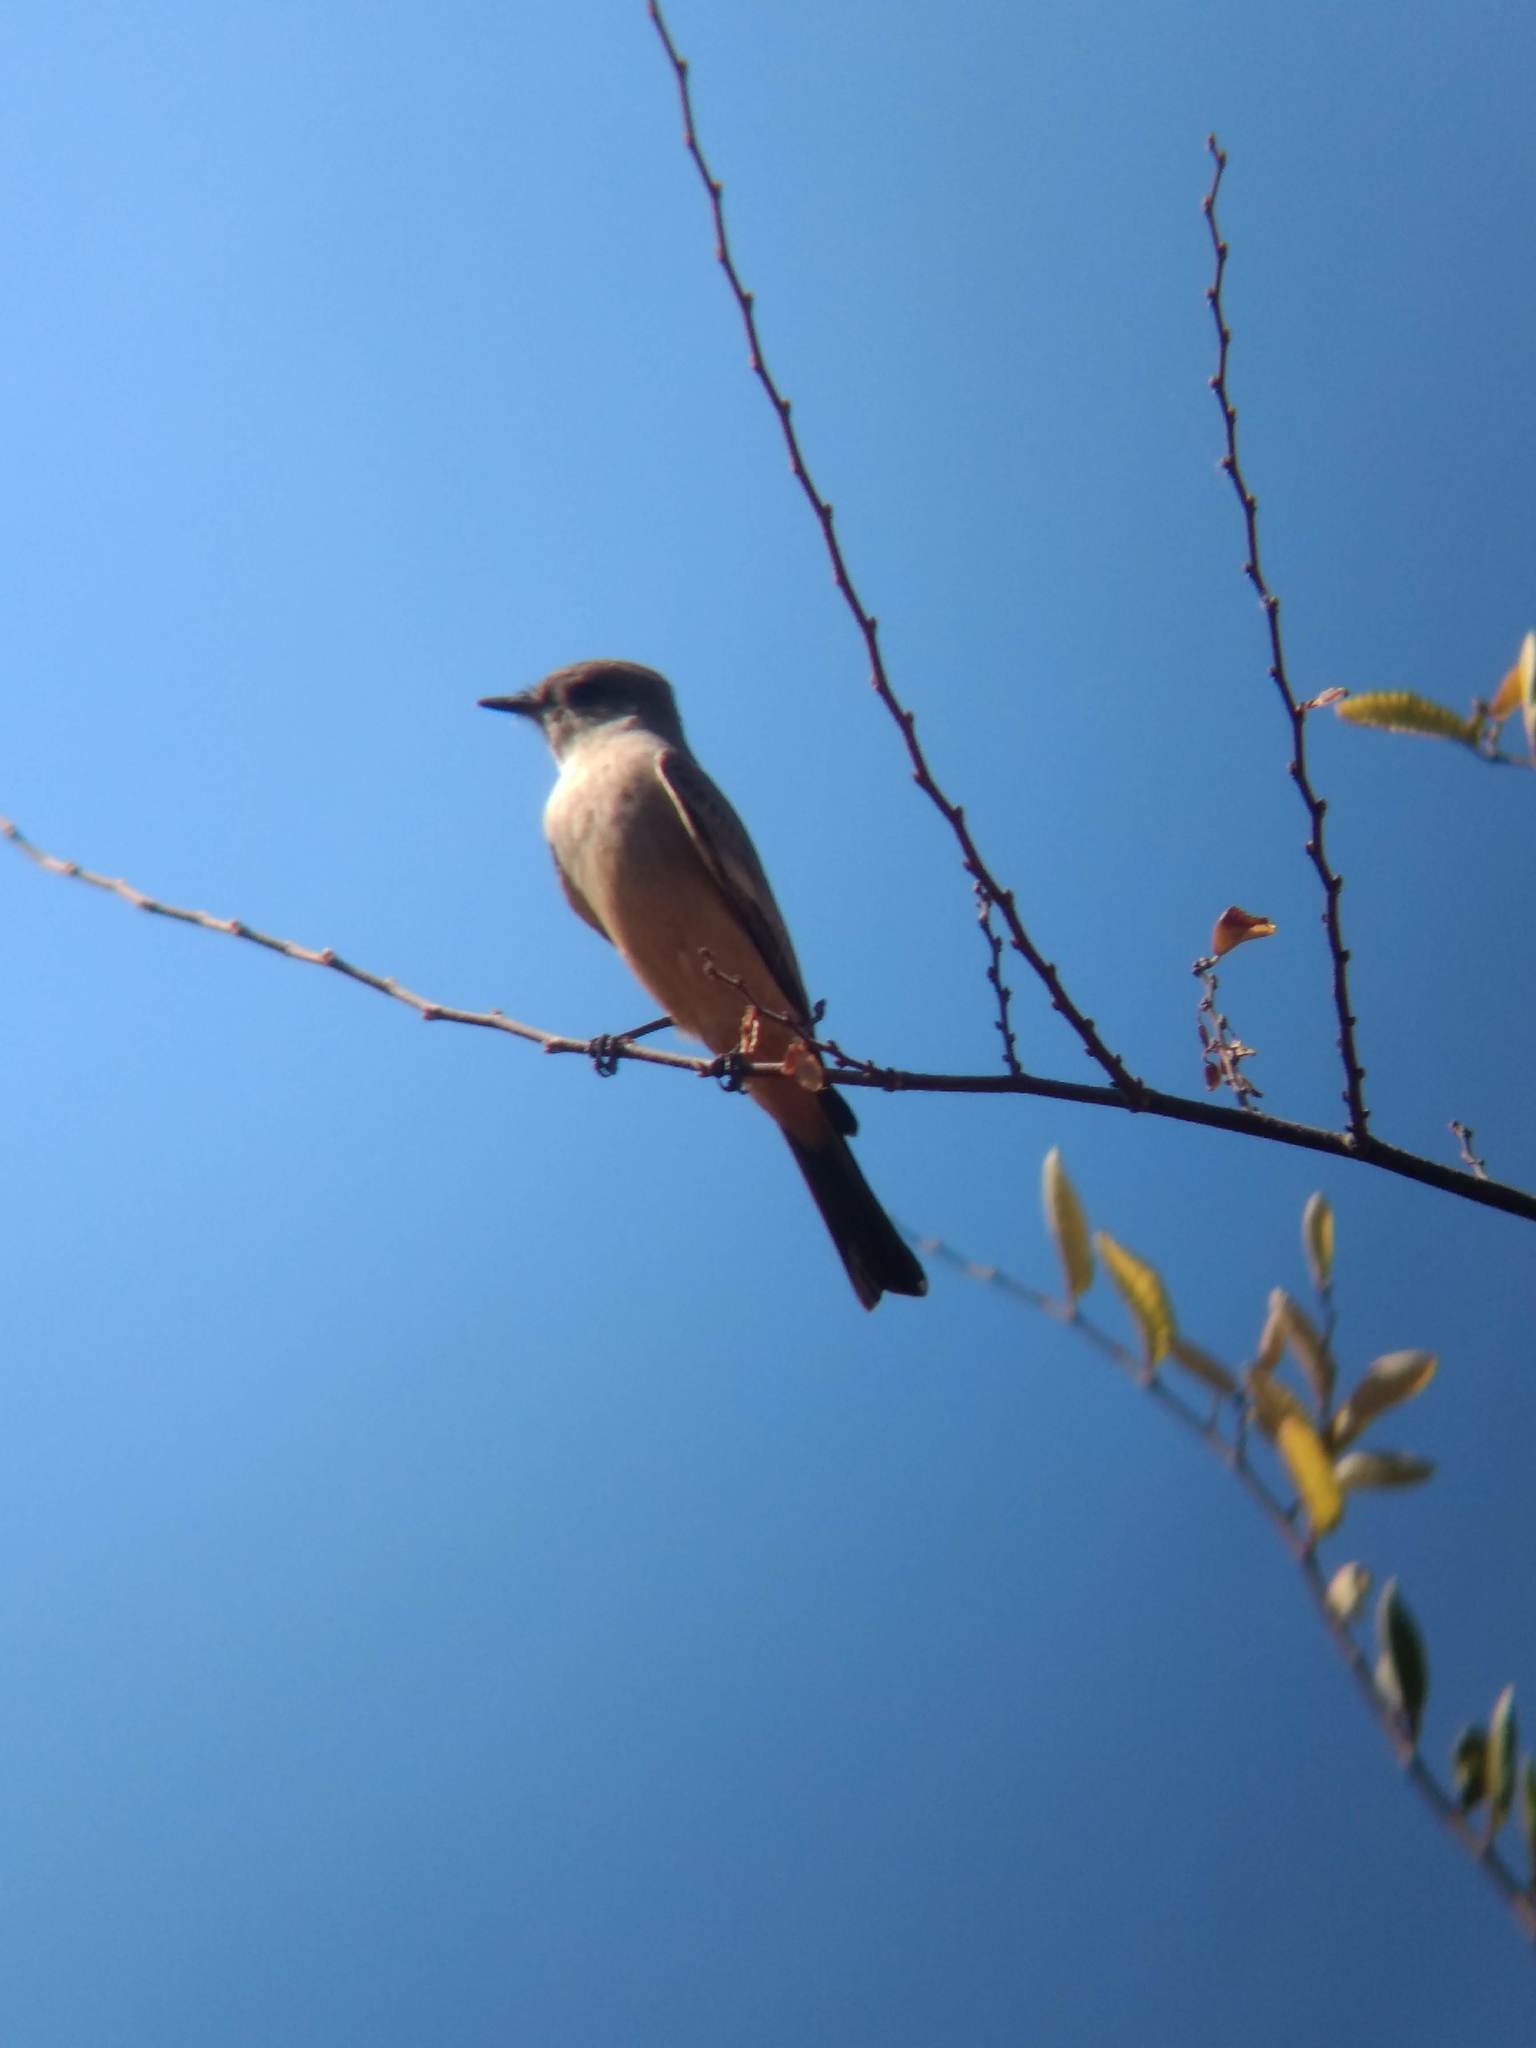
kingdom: Animalia
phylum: Chordata
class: Aves
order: Passeriformes
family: Tyrannidae
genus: Sayornis
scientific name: Sayornis saya
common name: Say's phoebe
